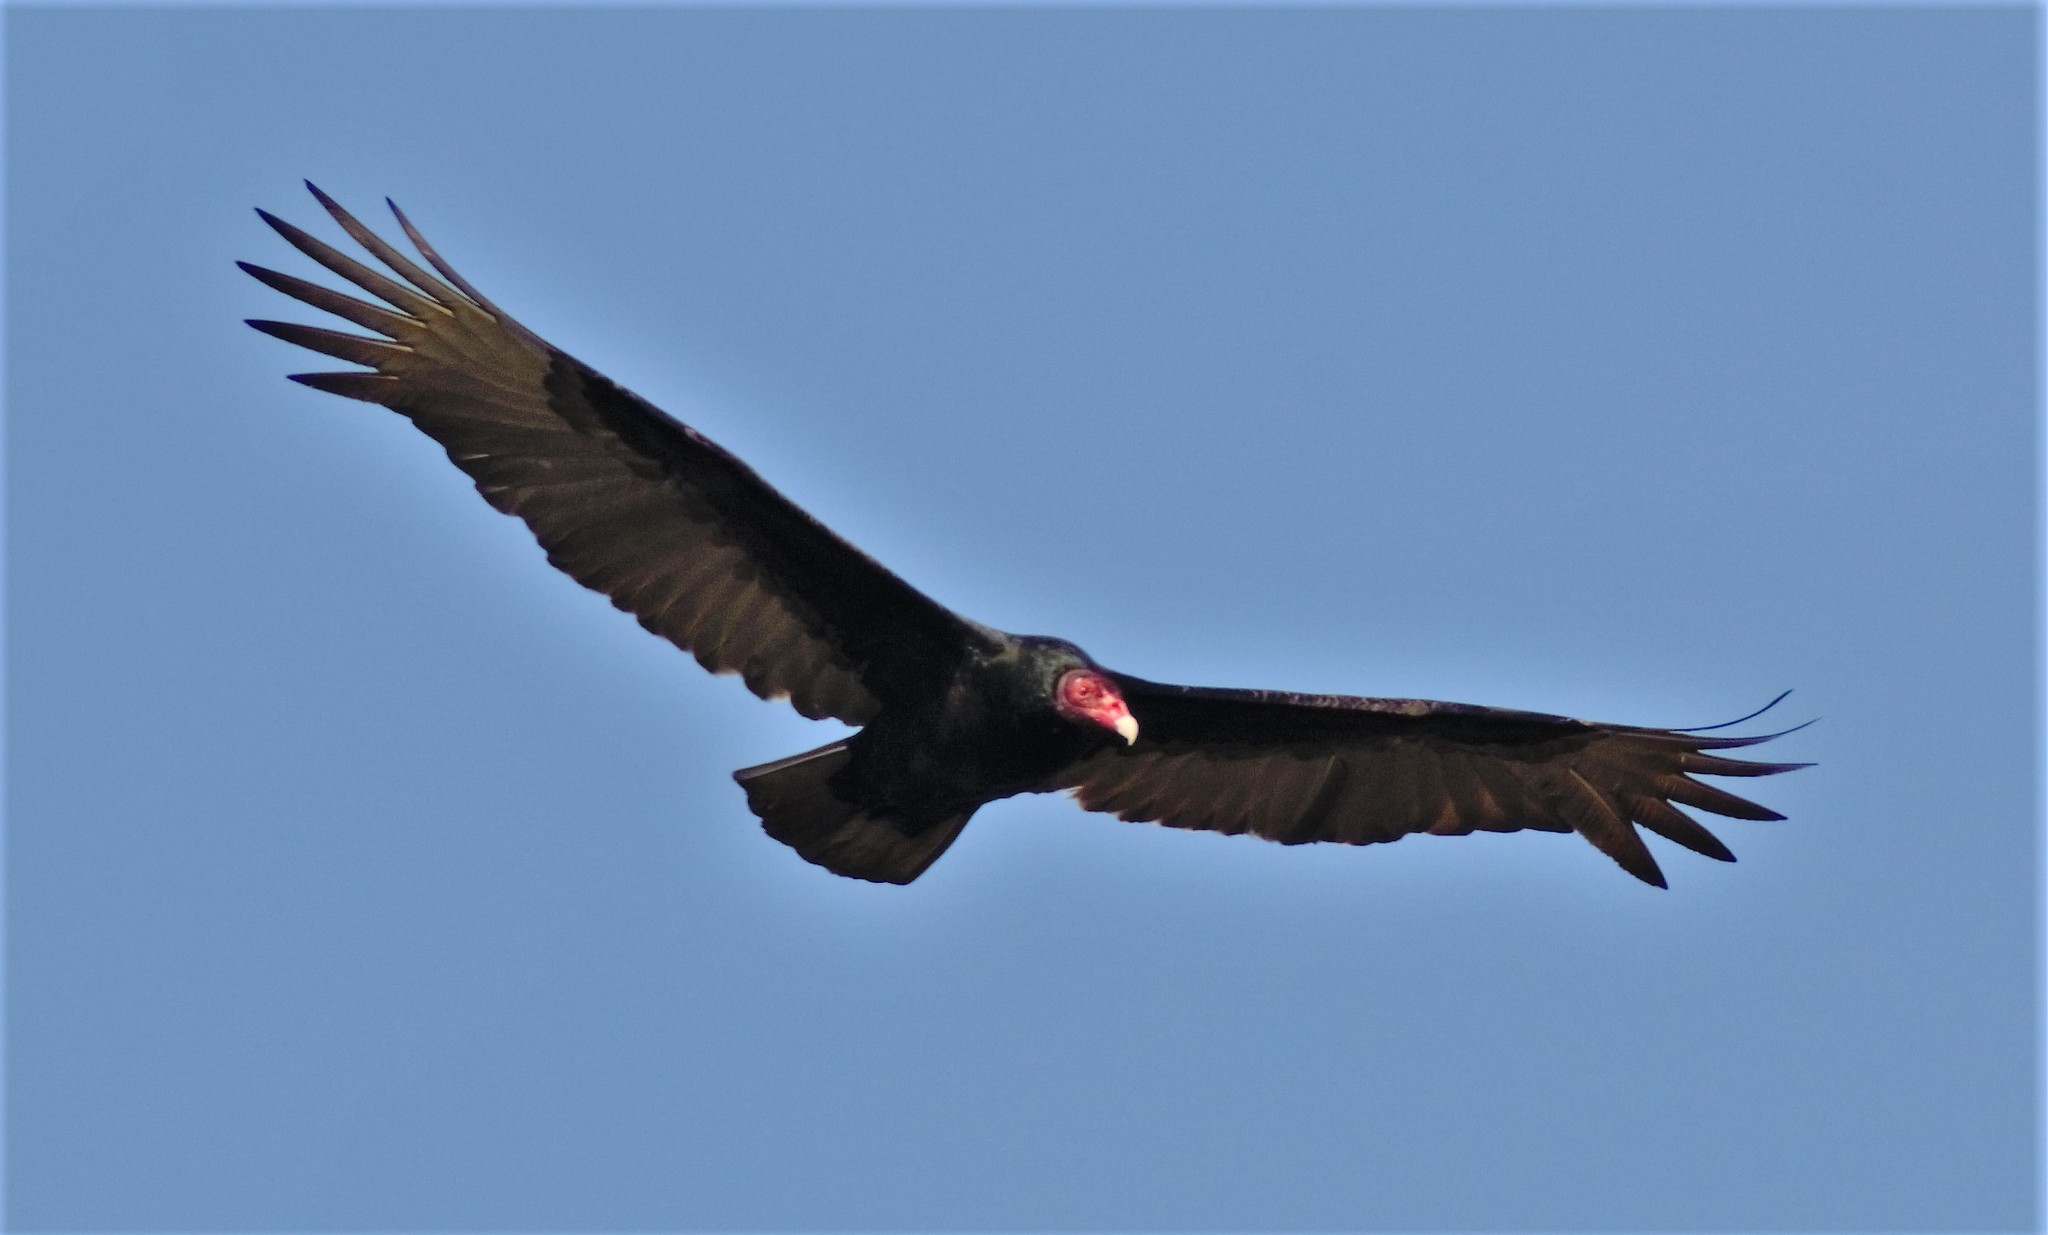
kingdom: Animalia
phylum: Chordata
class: Aves
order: Accipitriformes
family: Cathartidae
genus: Cathartes
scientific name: Cathartes aura
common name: Turkey vulture
